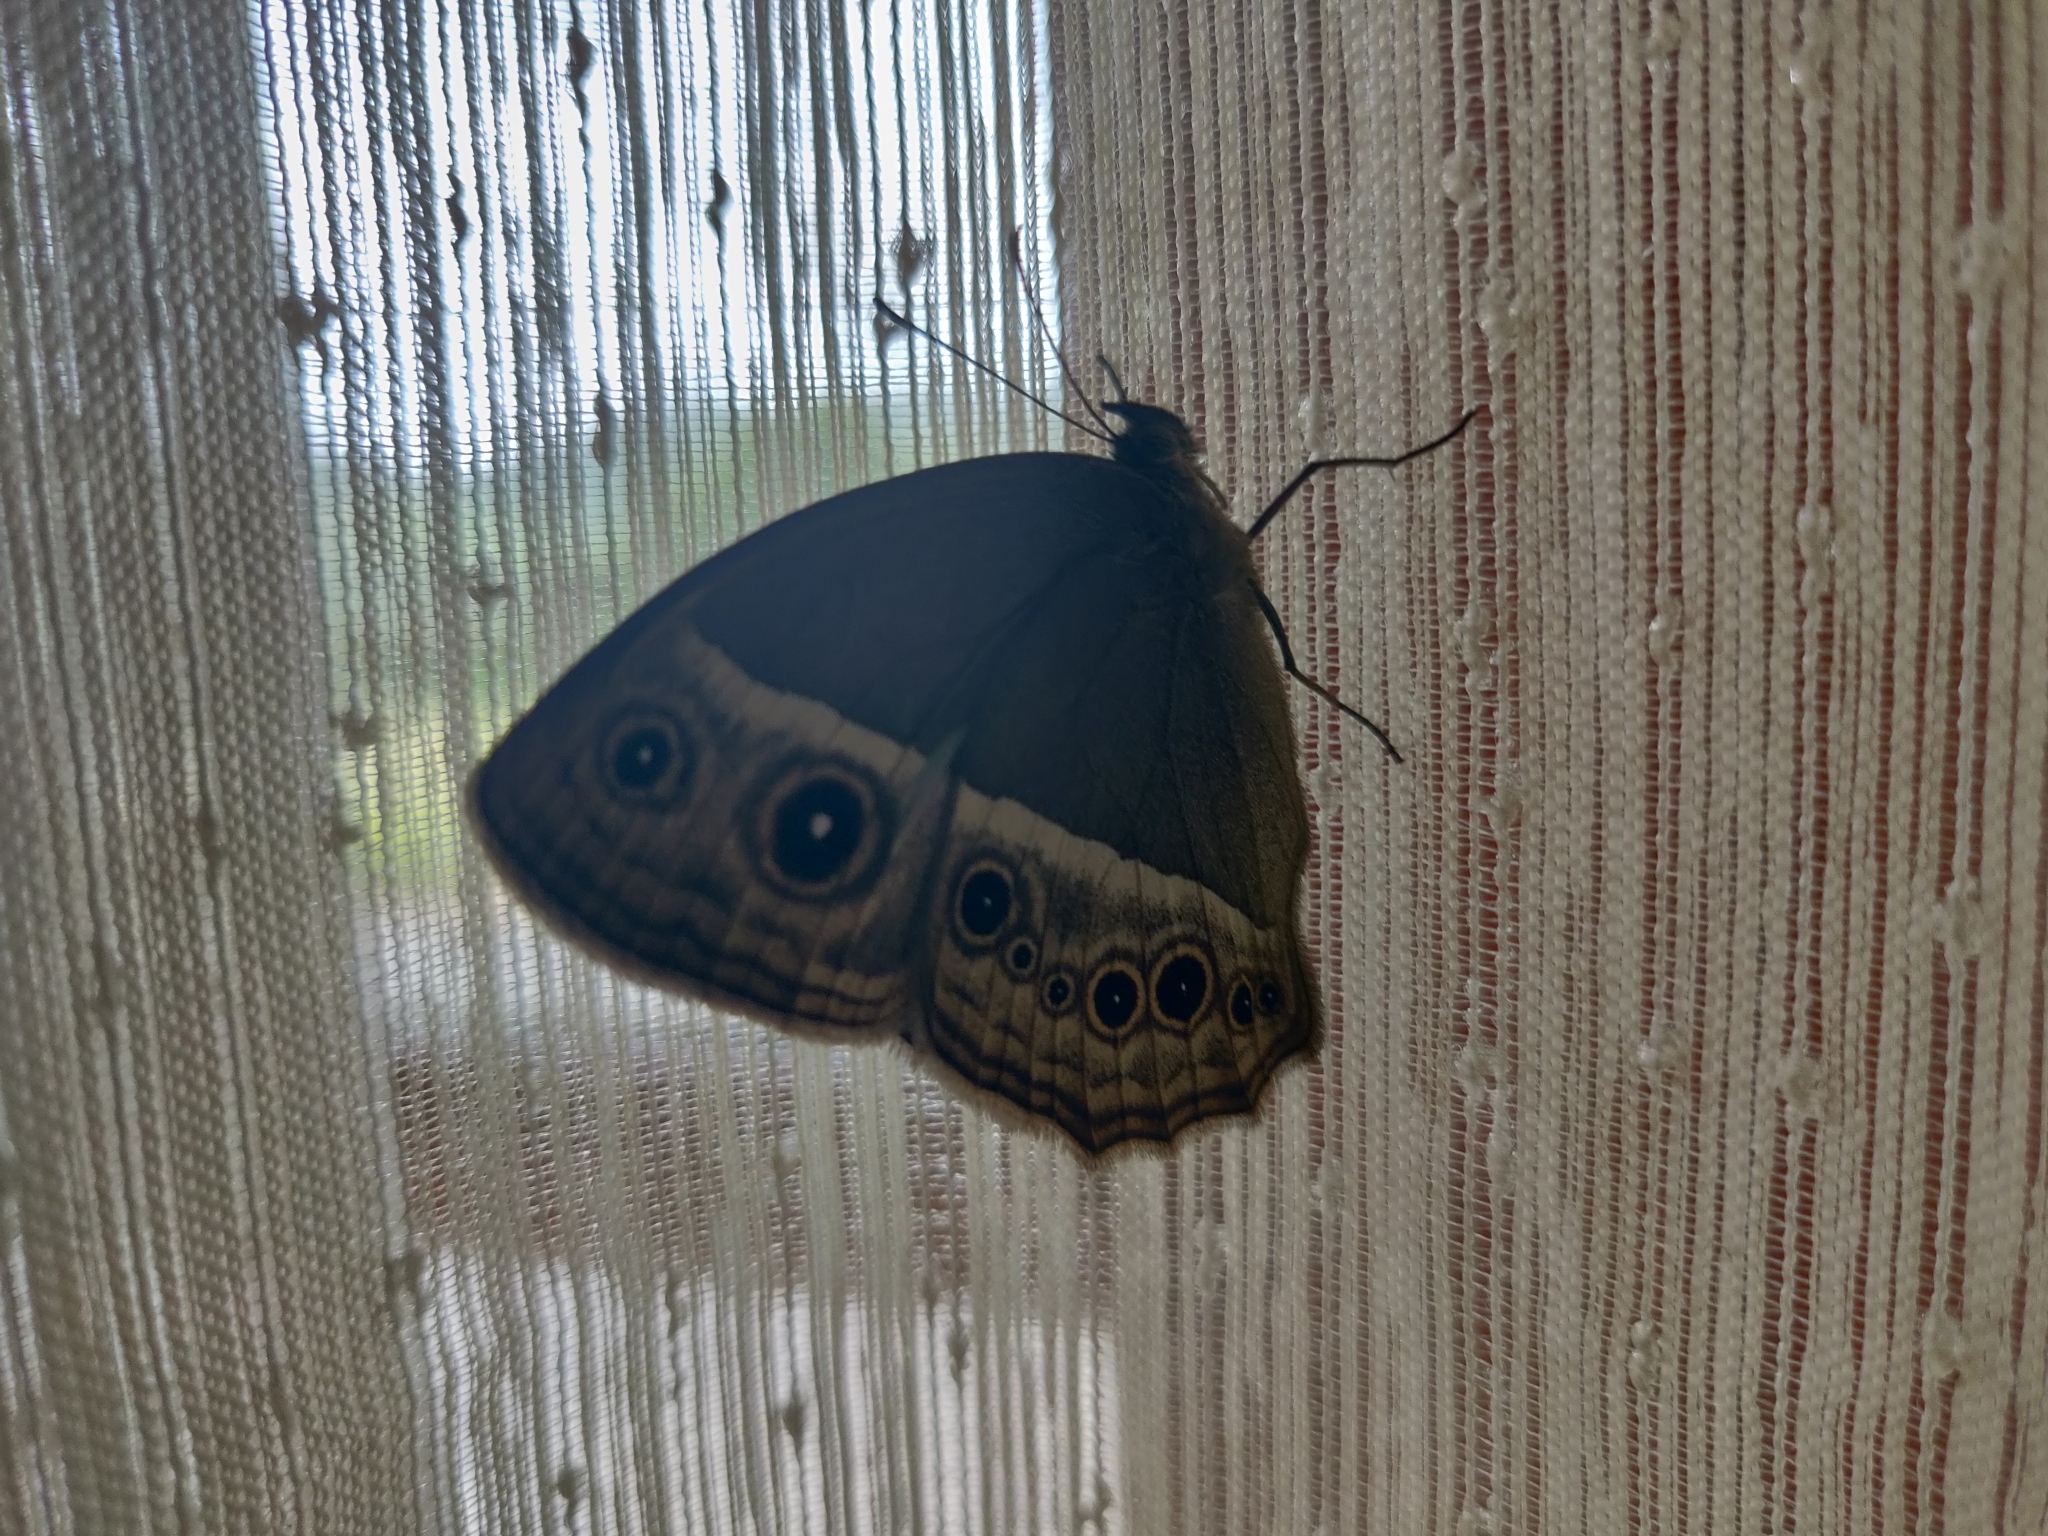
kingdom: Animalia
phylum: Arthropoda
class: Insecta
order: Lepidoptera
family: Nymphalidae
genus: Mycalesis
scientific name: Mycalesis mineus
